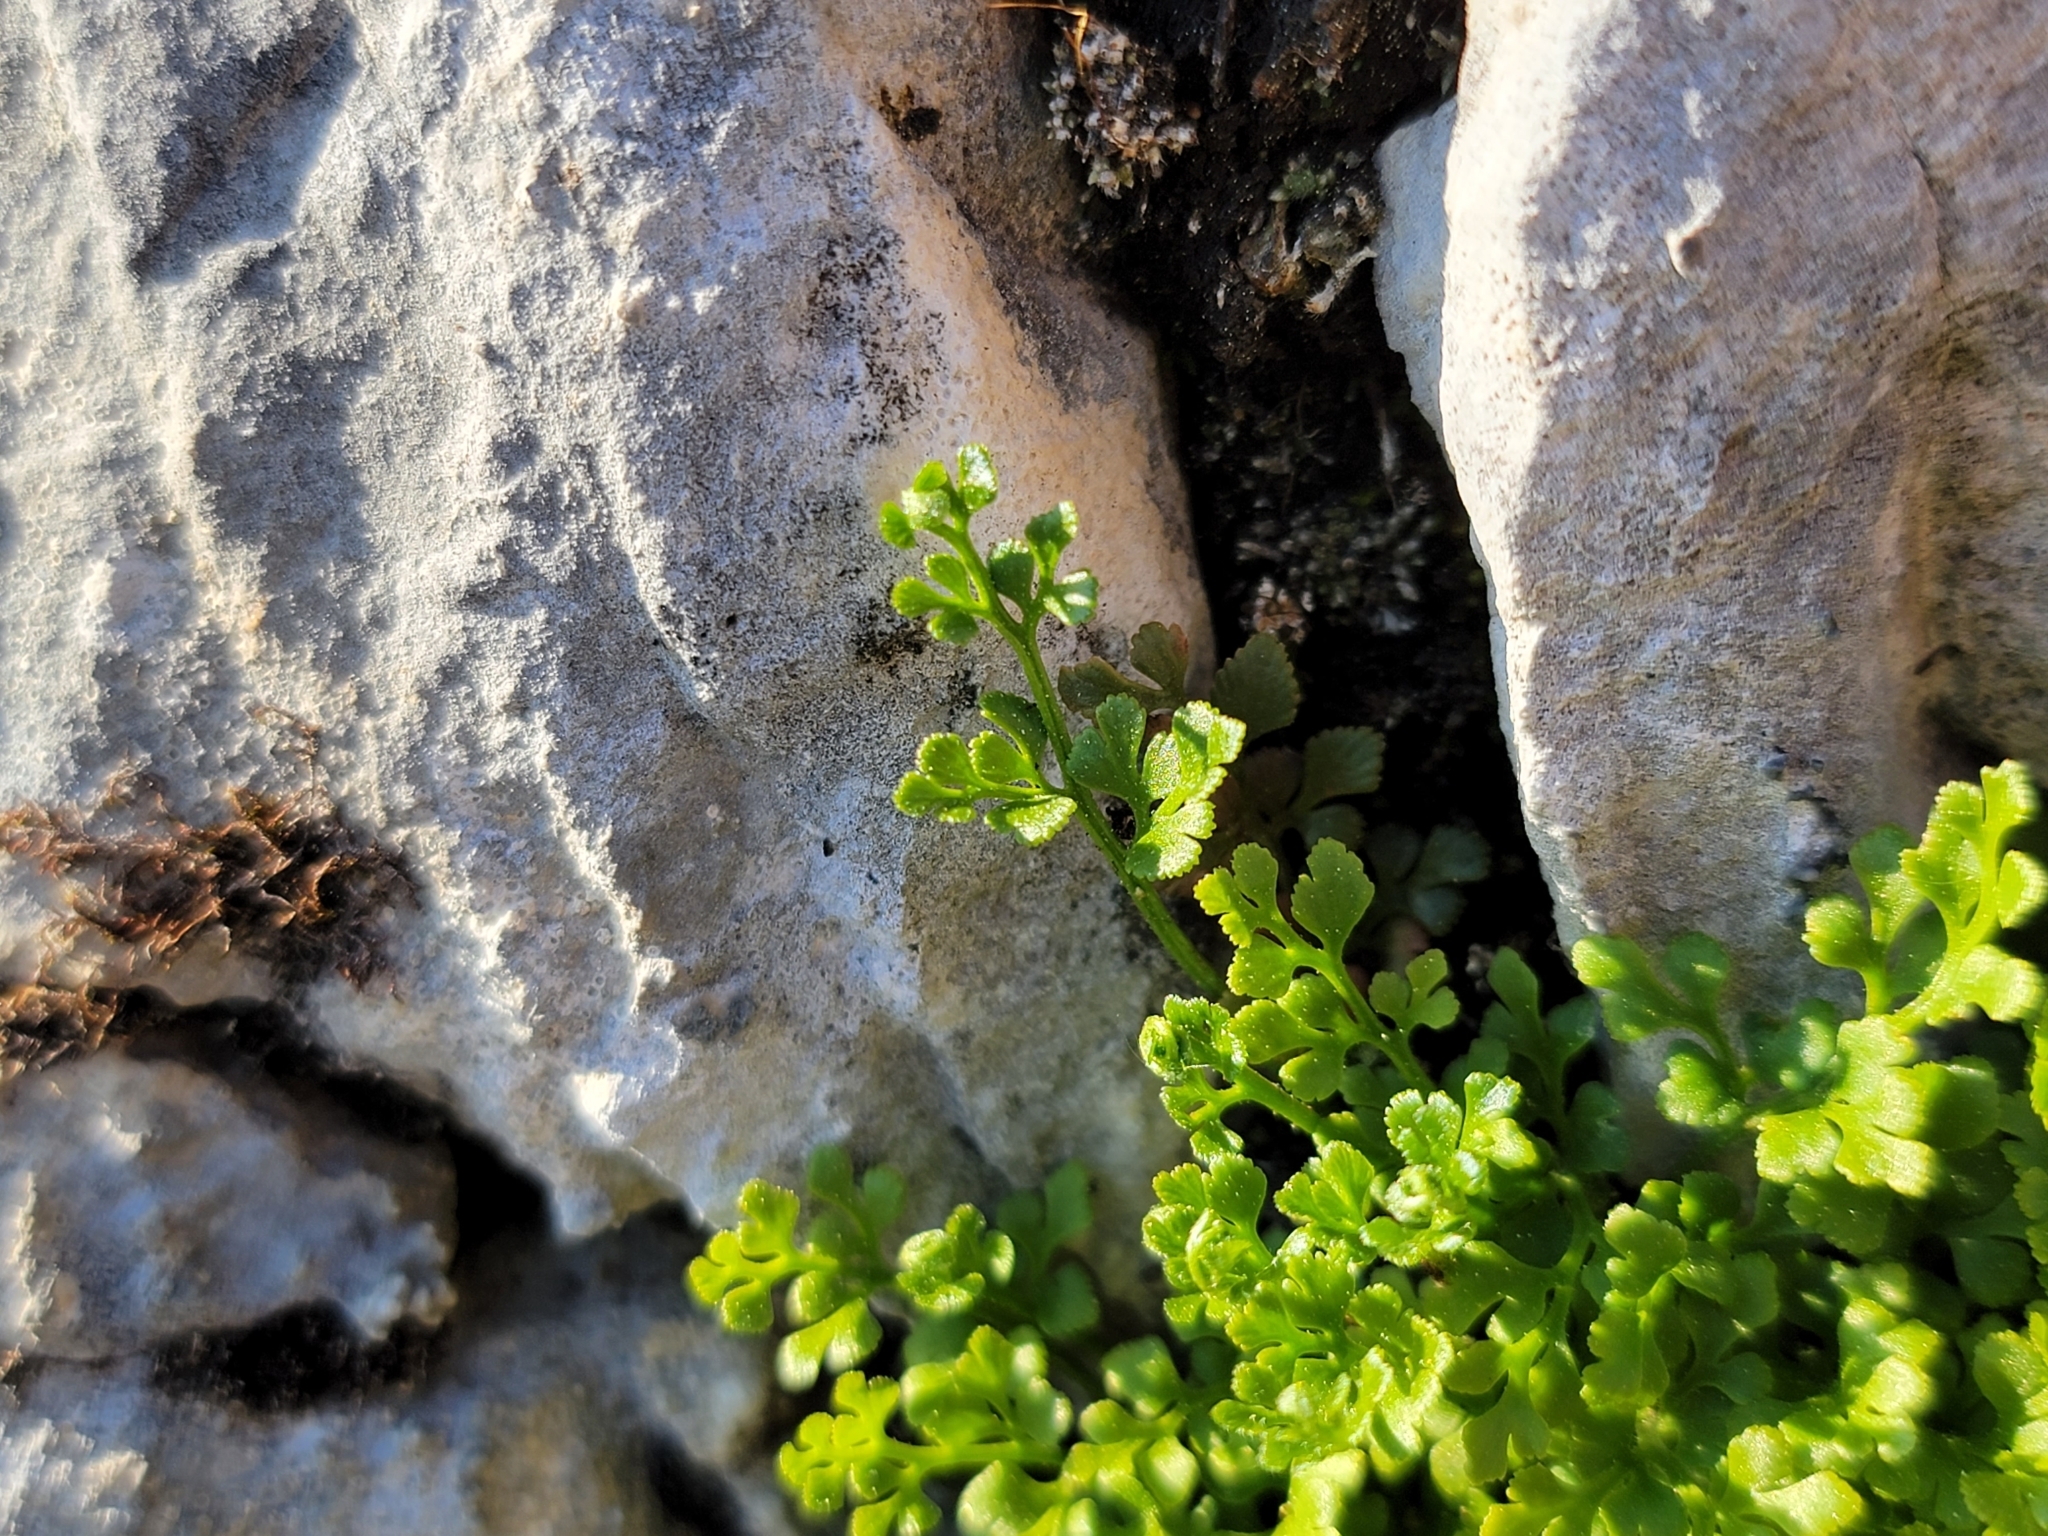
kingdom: Plantae
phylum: Tracheophyta
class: Polypodiopsida
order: Polypodiales
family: Aspleniaceae
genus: Asplenium
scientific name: Asplenium ruta-muraria
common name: Wall-rue
